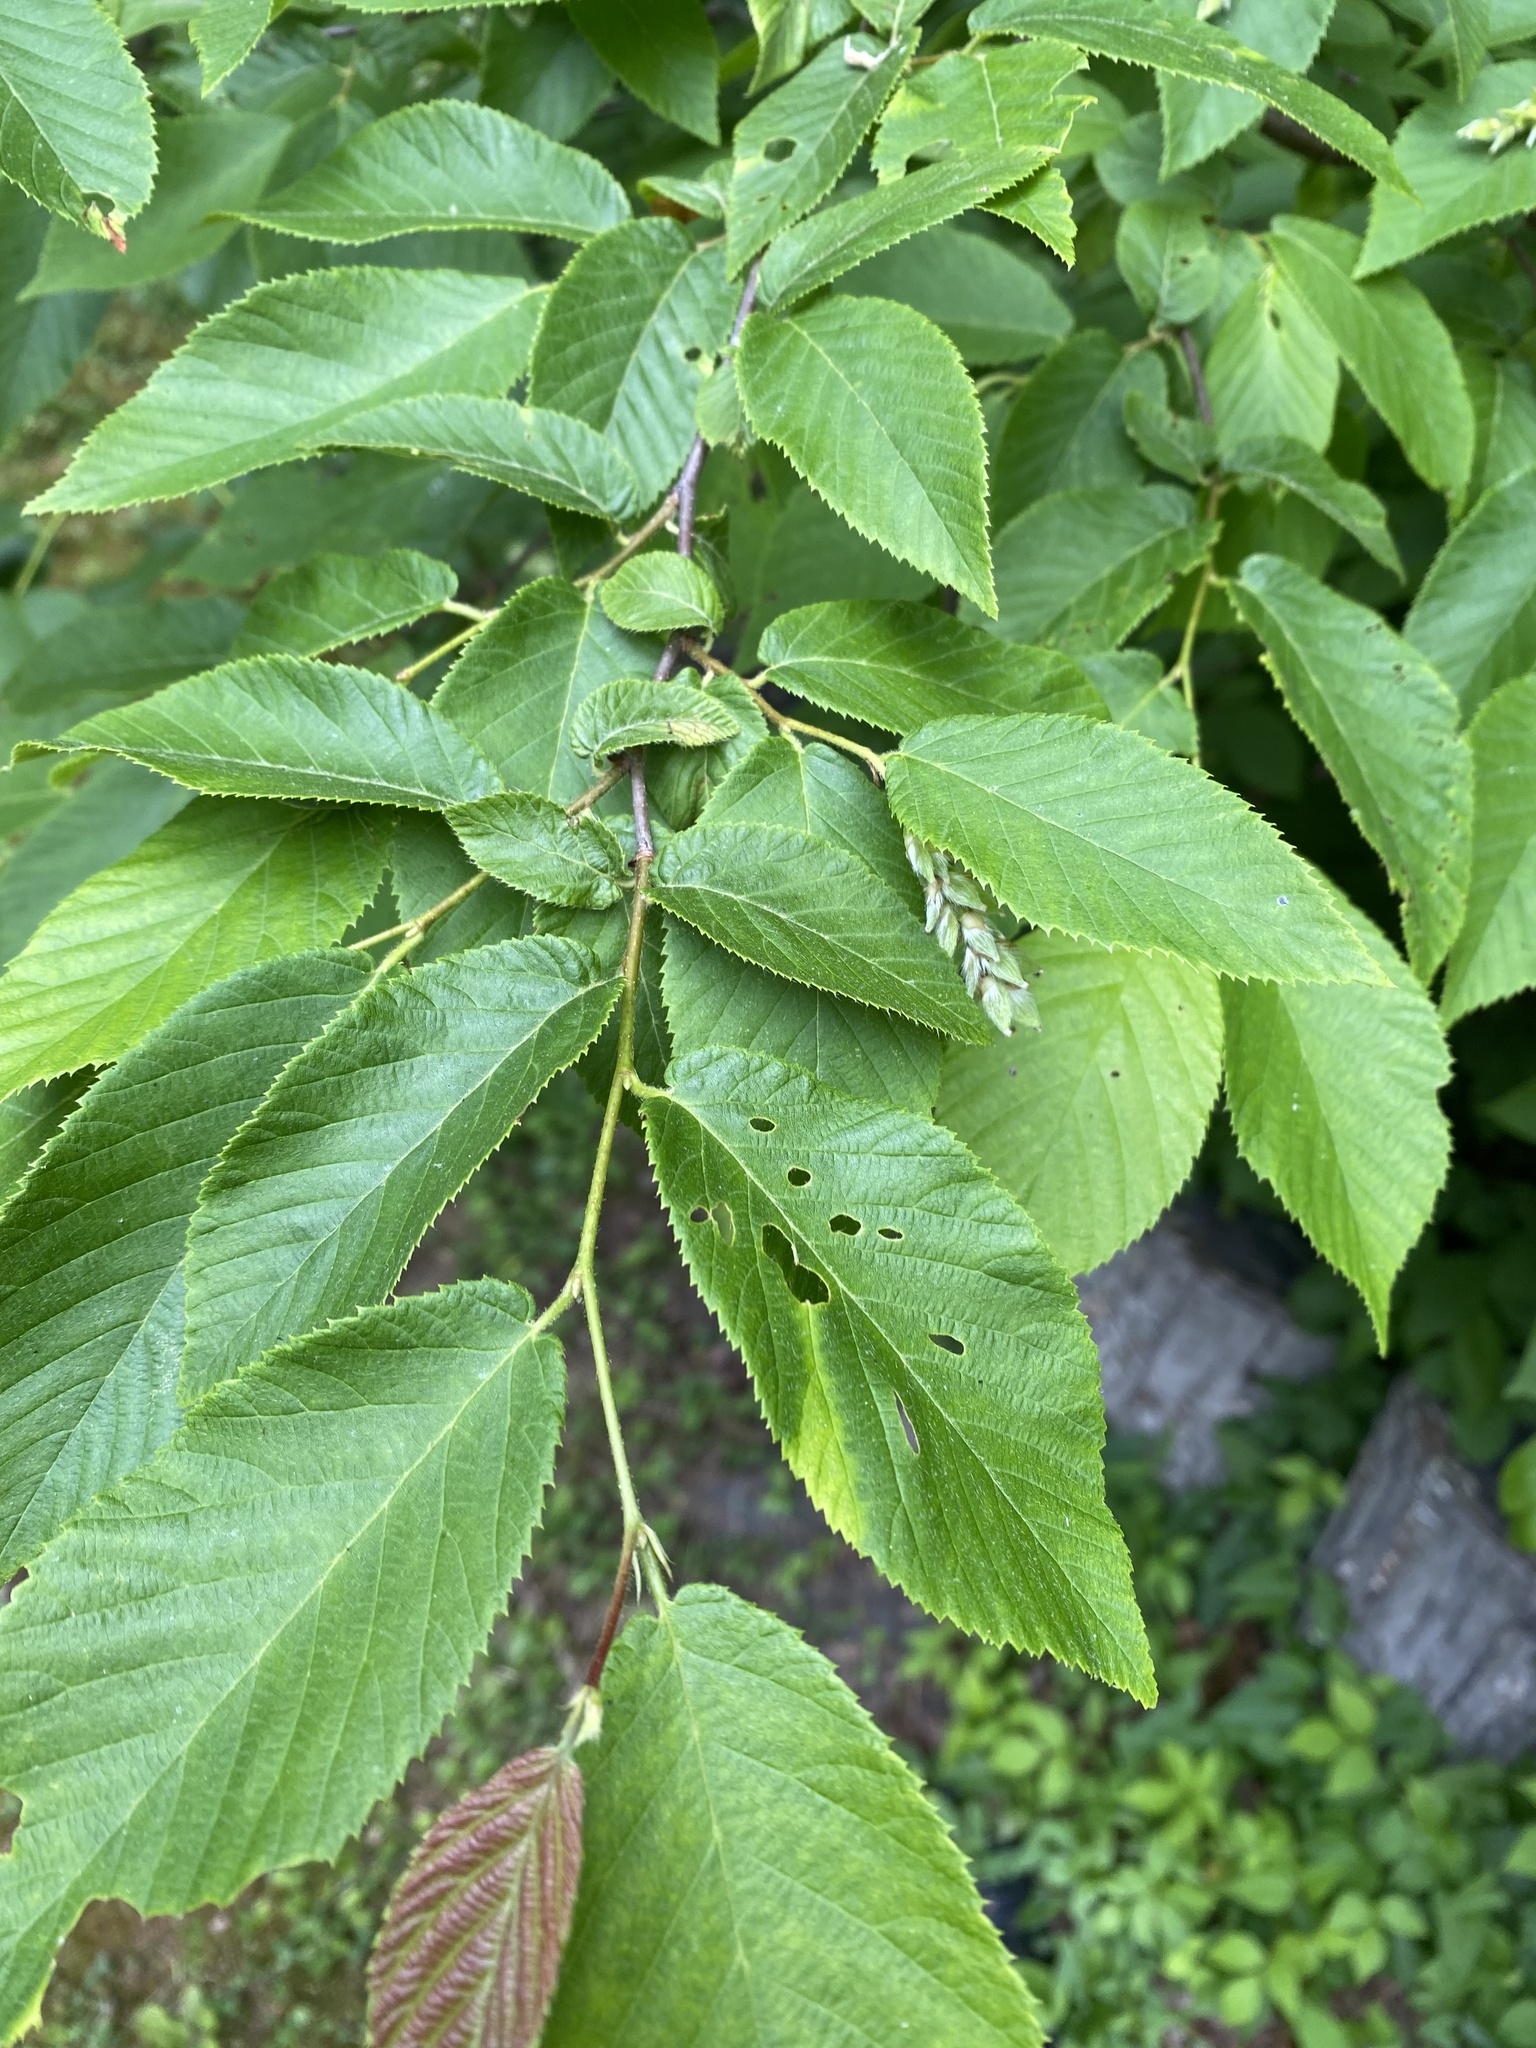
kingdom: Plantae
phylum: Tracheophyta
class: Magnoliopsida
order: Fagales
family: Betulaceae
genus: Ostrya
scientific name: Ostrya virginiana
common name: Ironwood
